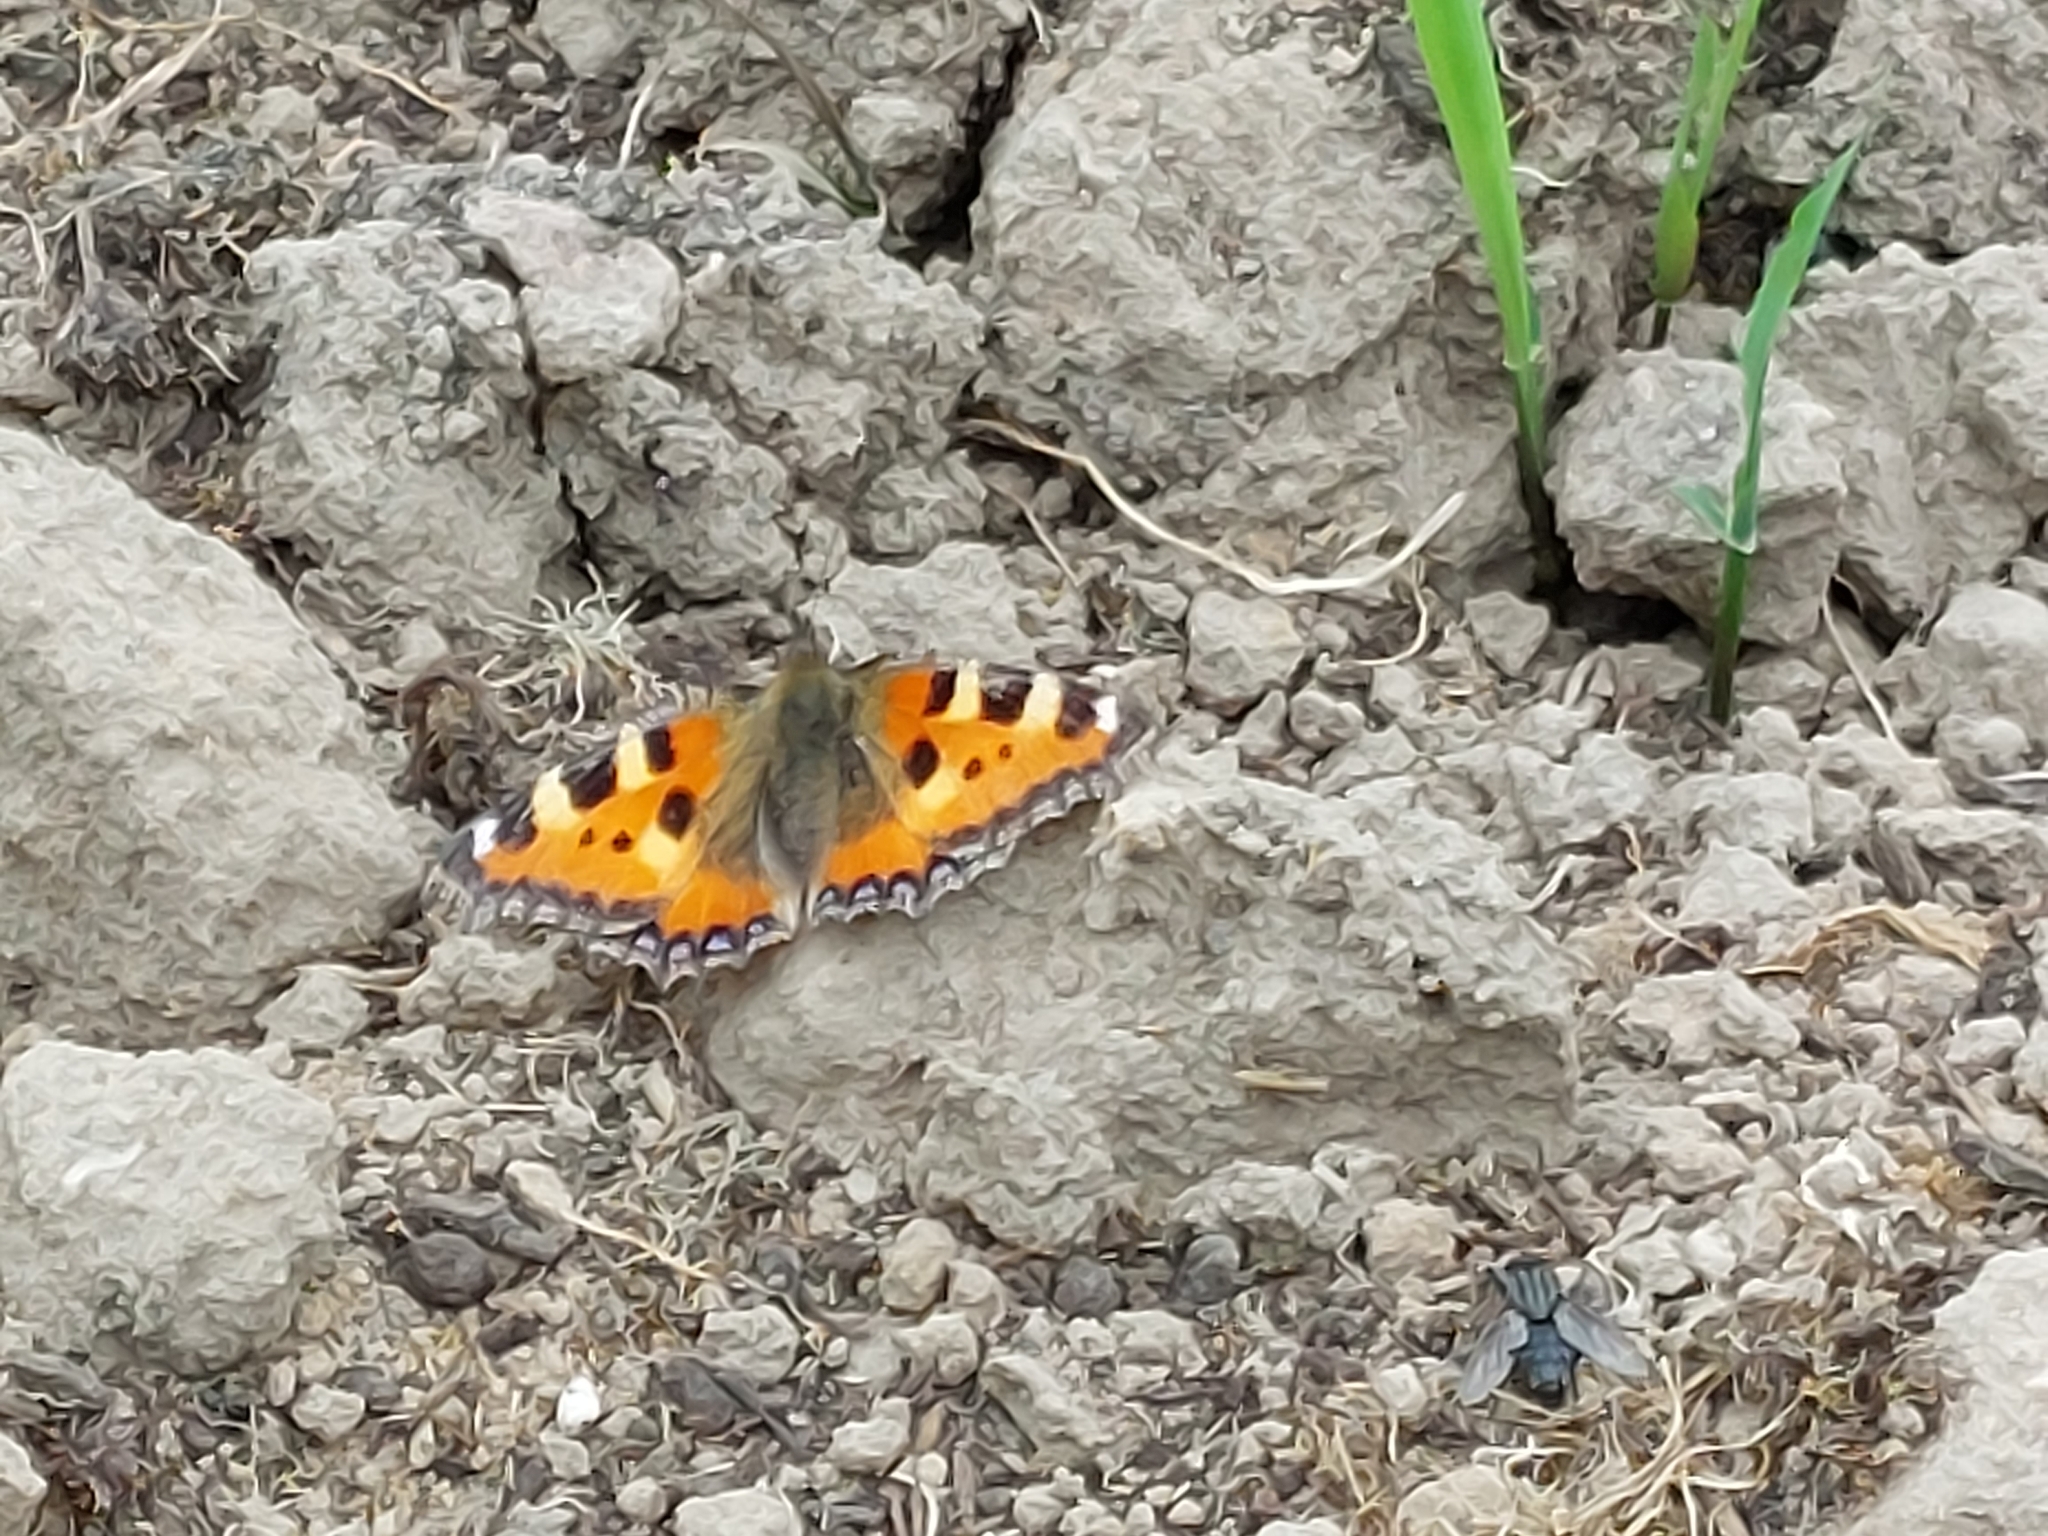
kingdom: Animalia
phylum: Arthropoda
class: Insecta
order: Lepidoptera
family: Nymphalidae
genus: Aglais
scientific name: Aglais urticae
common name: Small tortoiseshell
